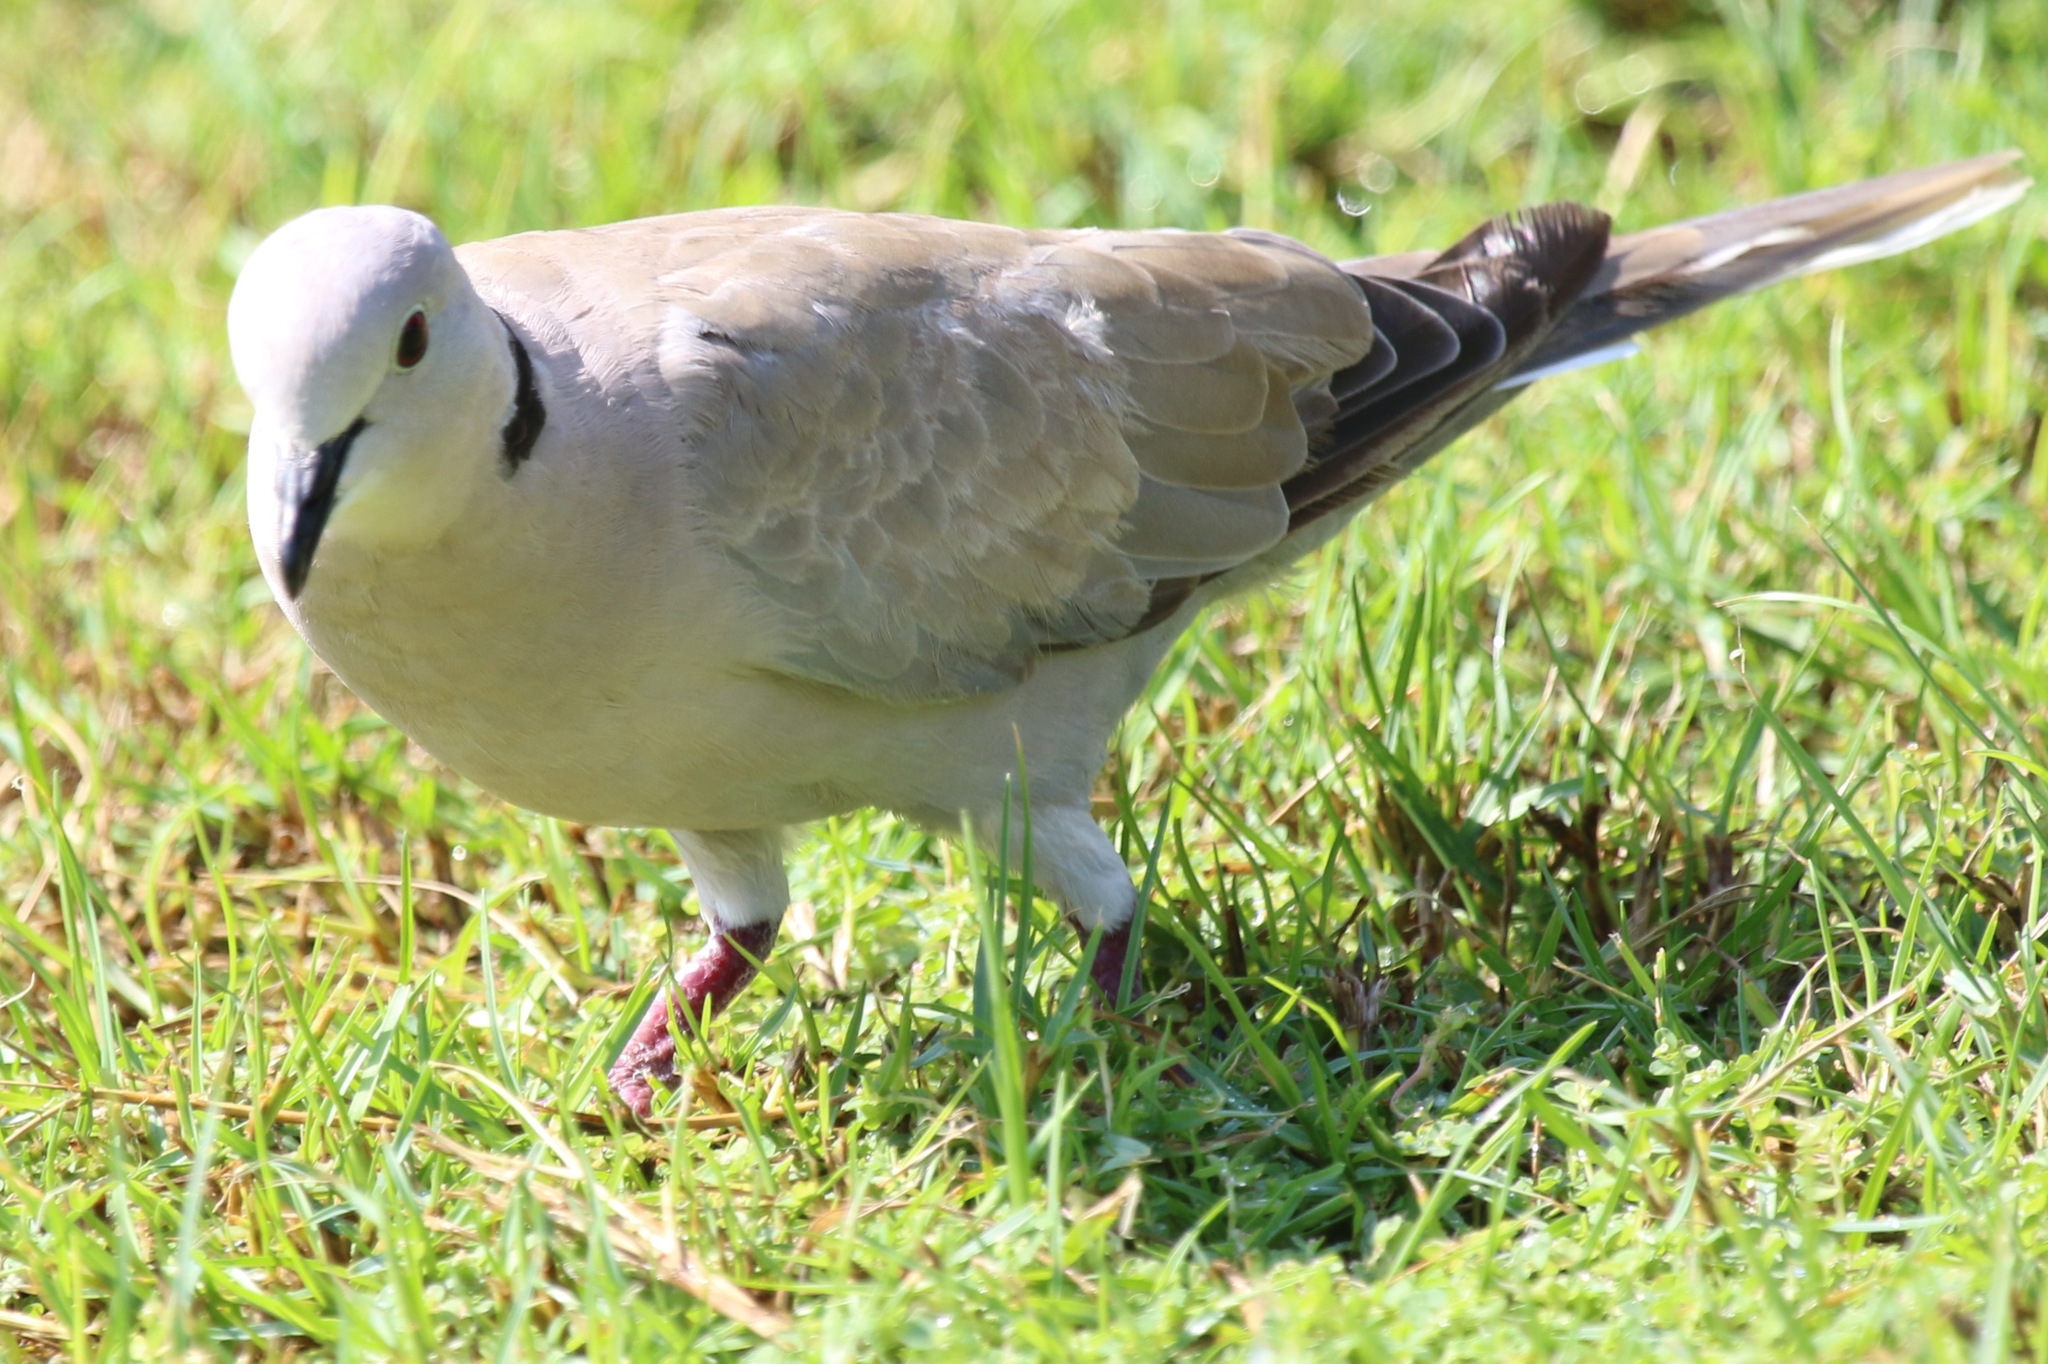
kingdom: Animalia
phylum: Chordata
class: Aves
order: Columbiformes
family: Columbidae
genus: Streptopelia
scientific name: Streptopelia decaocto
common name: Eurasian collared dove
